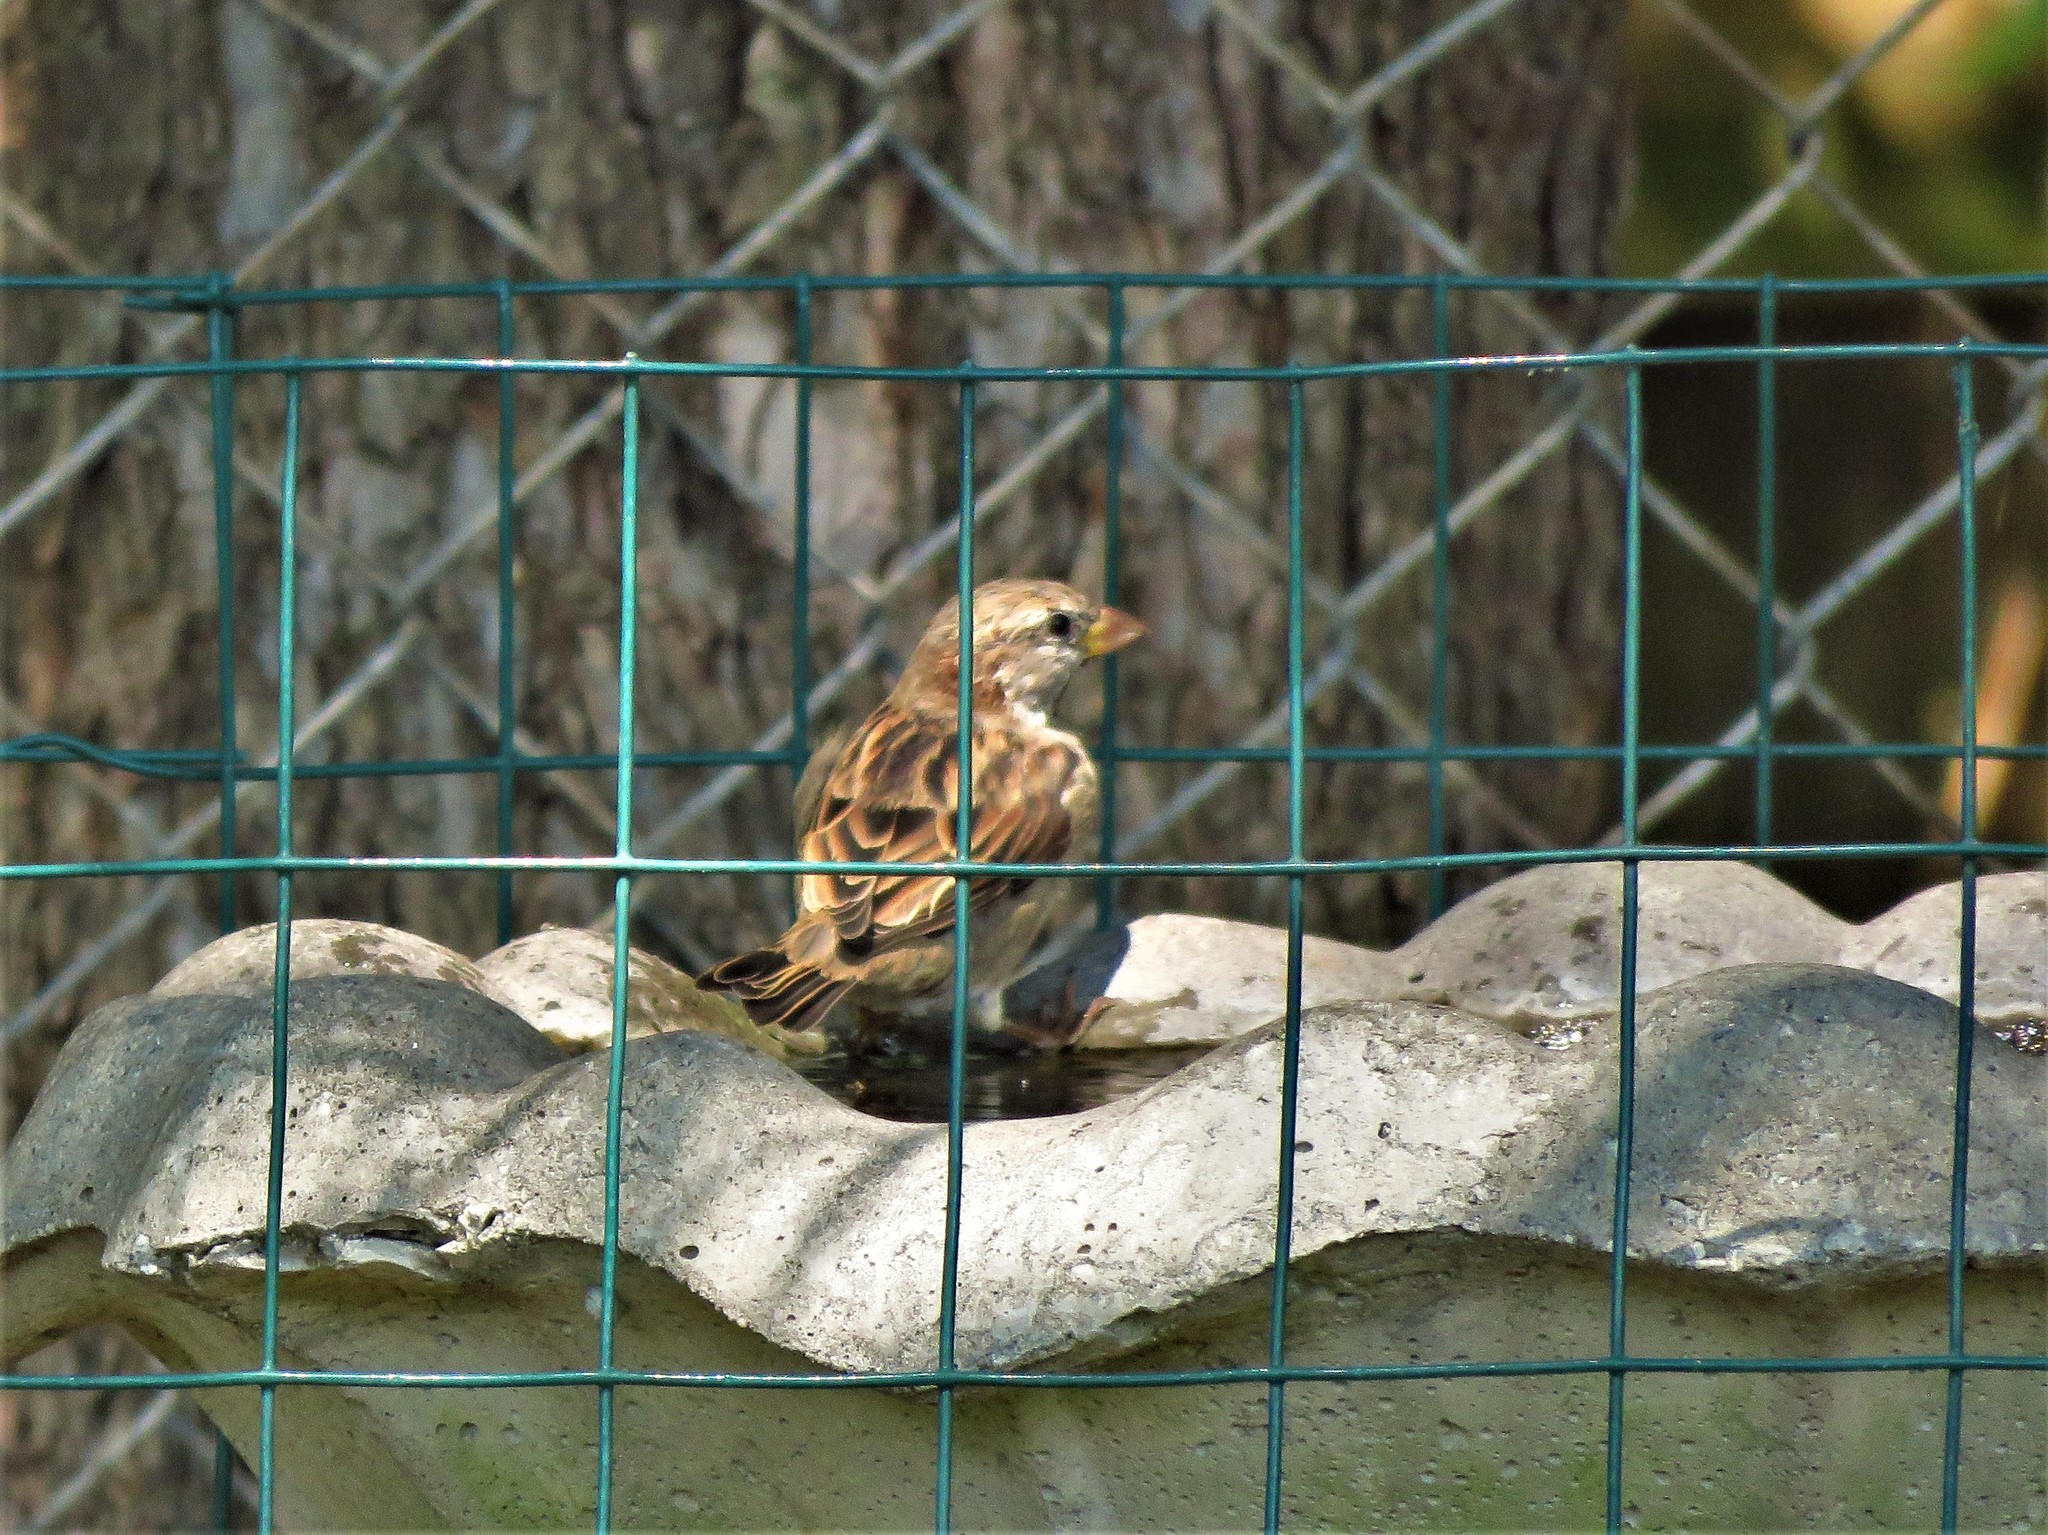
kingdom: Animalia
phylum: Chordata
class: Aves
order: Passeriformes
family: Passeridae
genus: Passer
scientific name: Passer domesticus
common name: House sparrow
